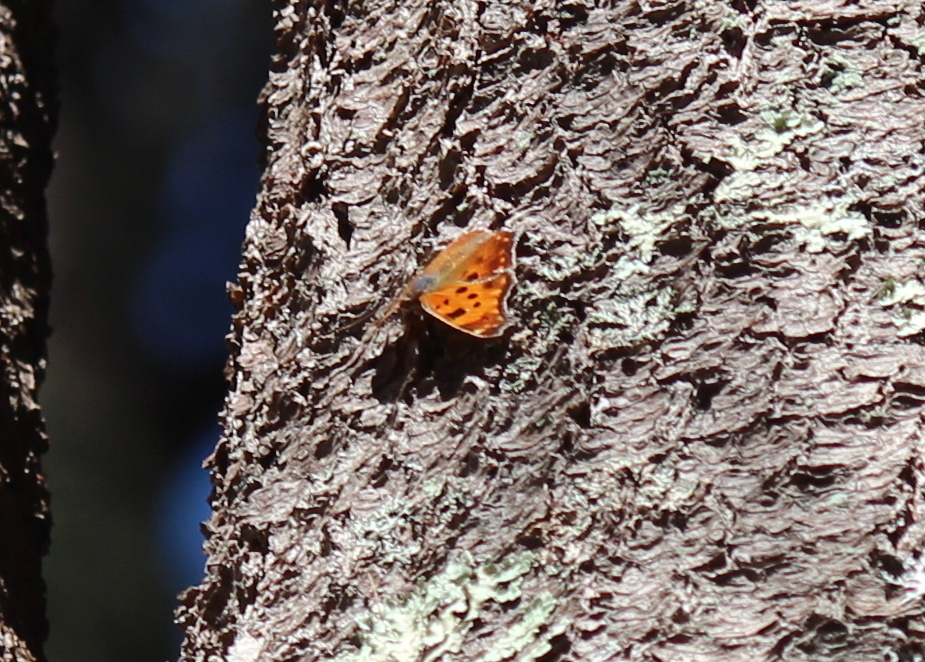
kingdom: Animalia
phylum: Arthropoda
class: Insecta
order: Lepidoptera
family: Nymphalidae
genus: Polygonia
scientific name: Polygonia comma
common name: Eastern comma
